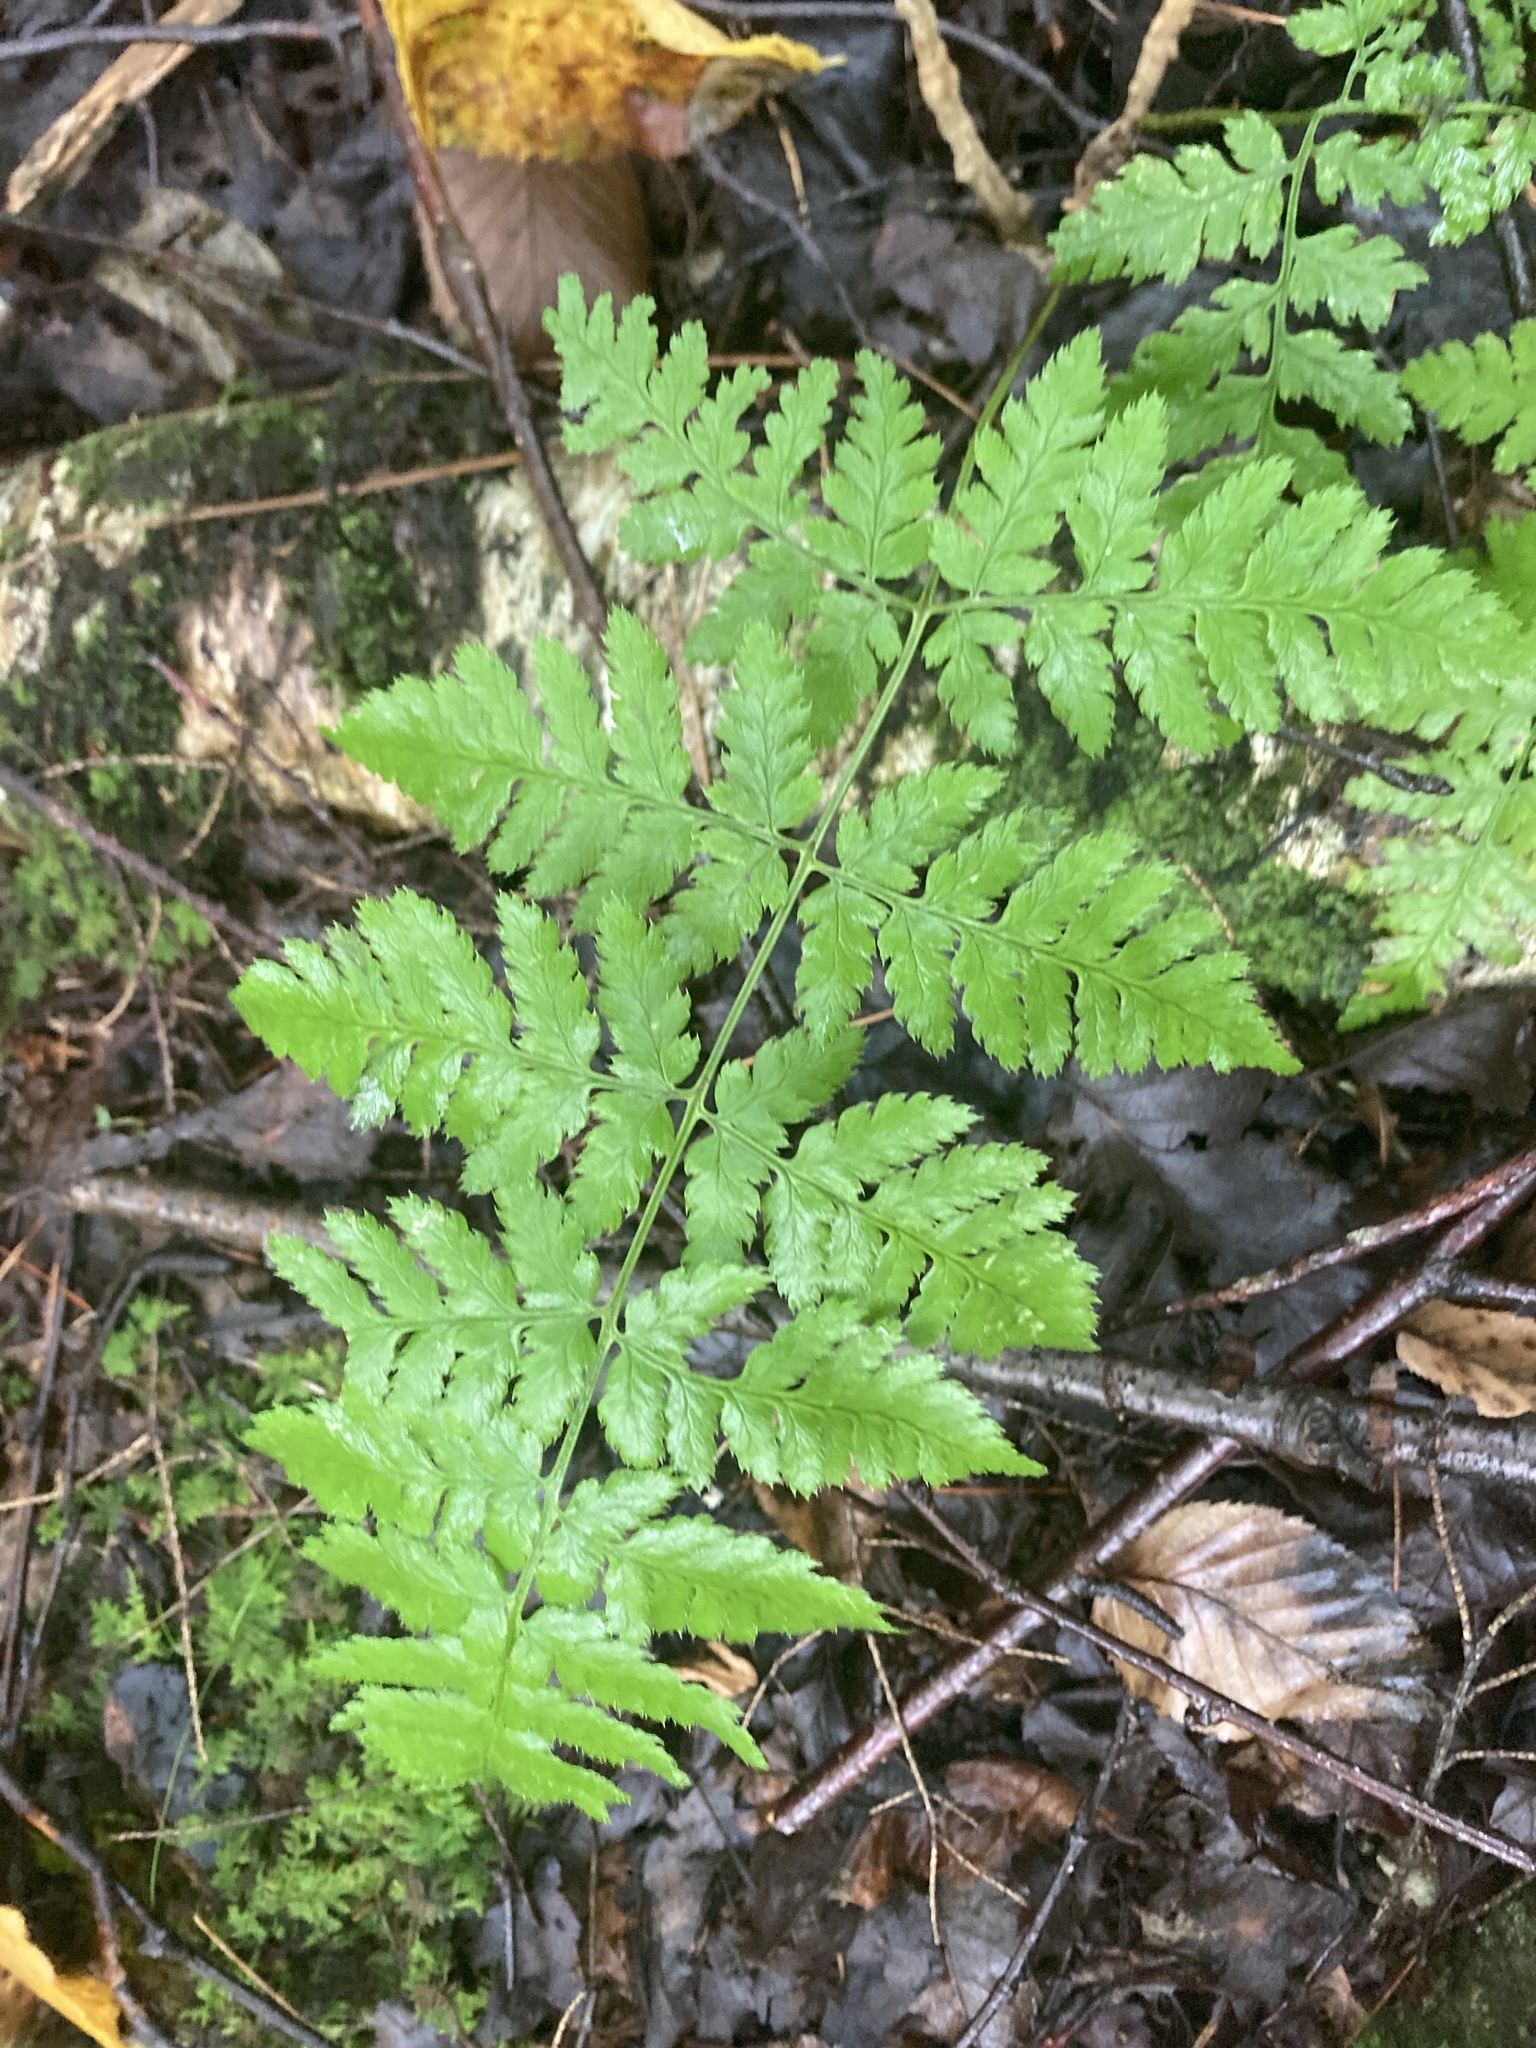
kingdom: Plantae
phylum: Tracheophyta
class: Polypodiopsida
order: Polypodiales
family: Dryopteridaceae
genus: Dryopteris
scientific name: Dryopteris carthusiana
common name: Narrow buckler-fern
